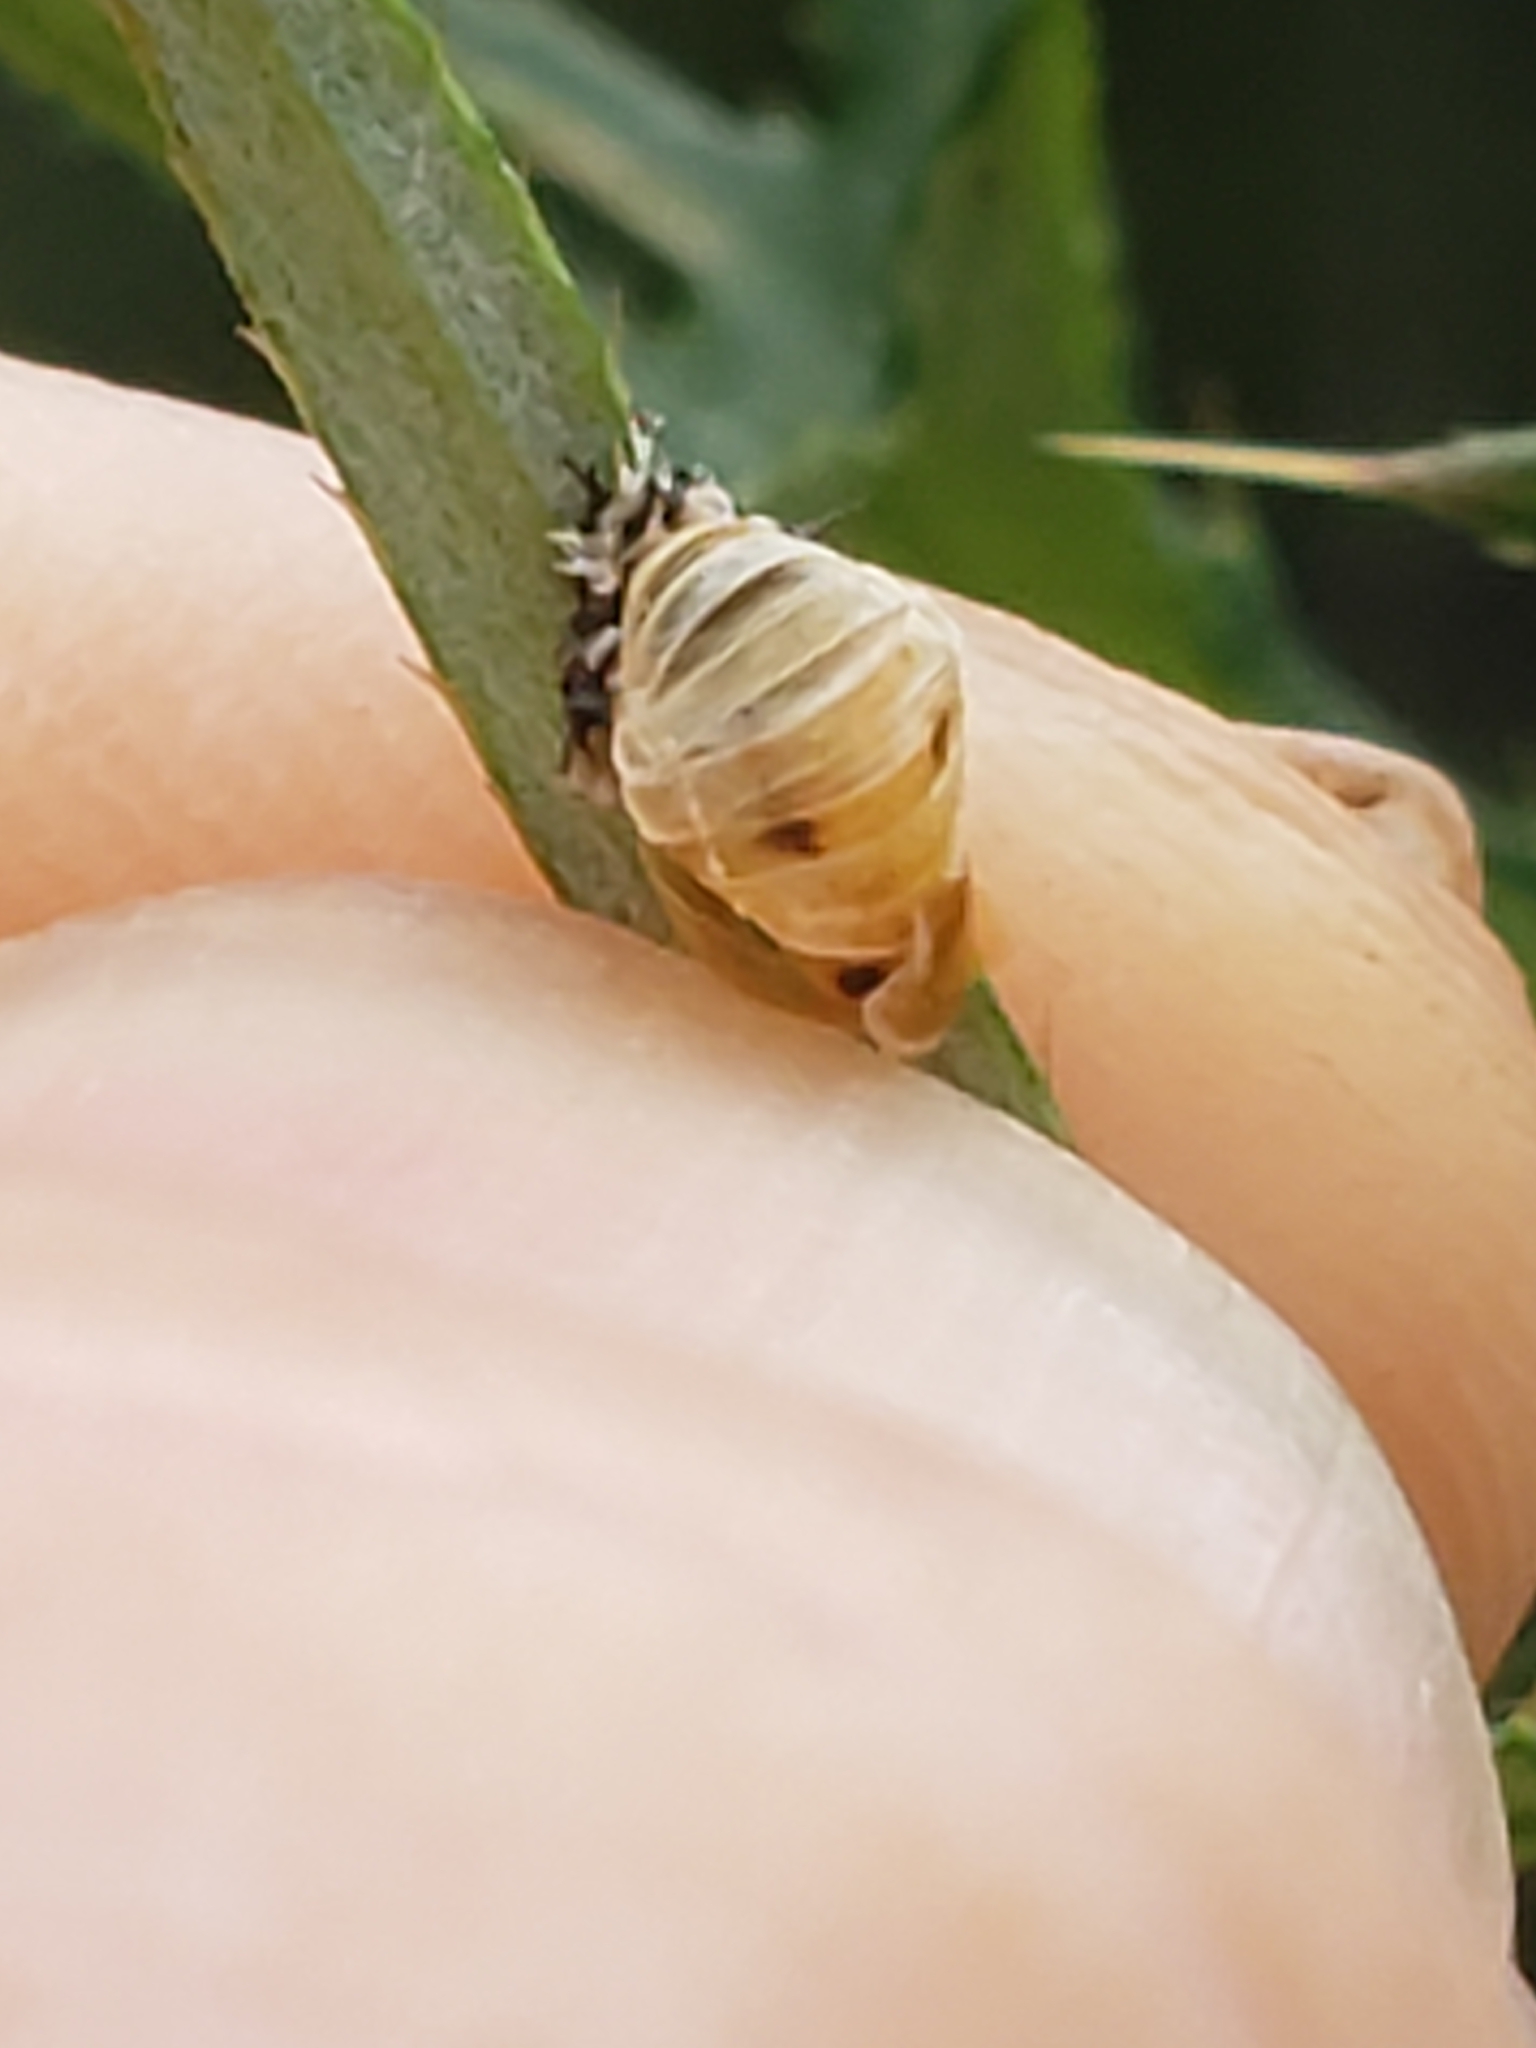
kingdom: Animalia
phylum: Arthropoda
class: Insecta
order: Coleoptera
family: Coccinellidae
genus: Harmonia
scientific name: Harmonia axyridis
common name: Harlequin ladybird
